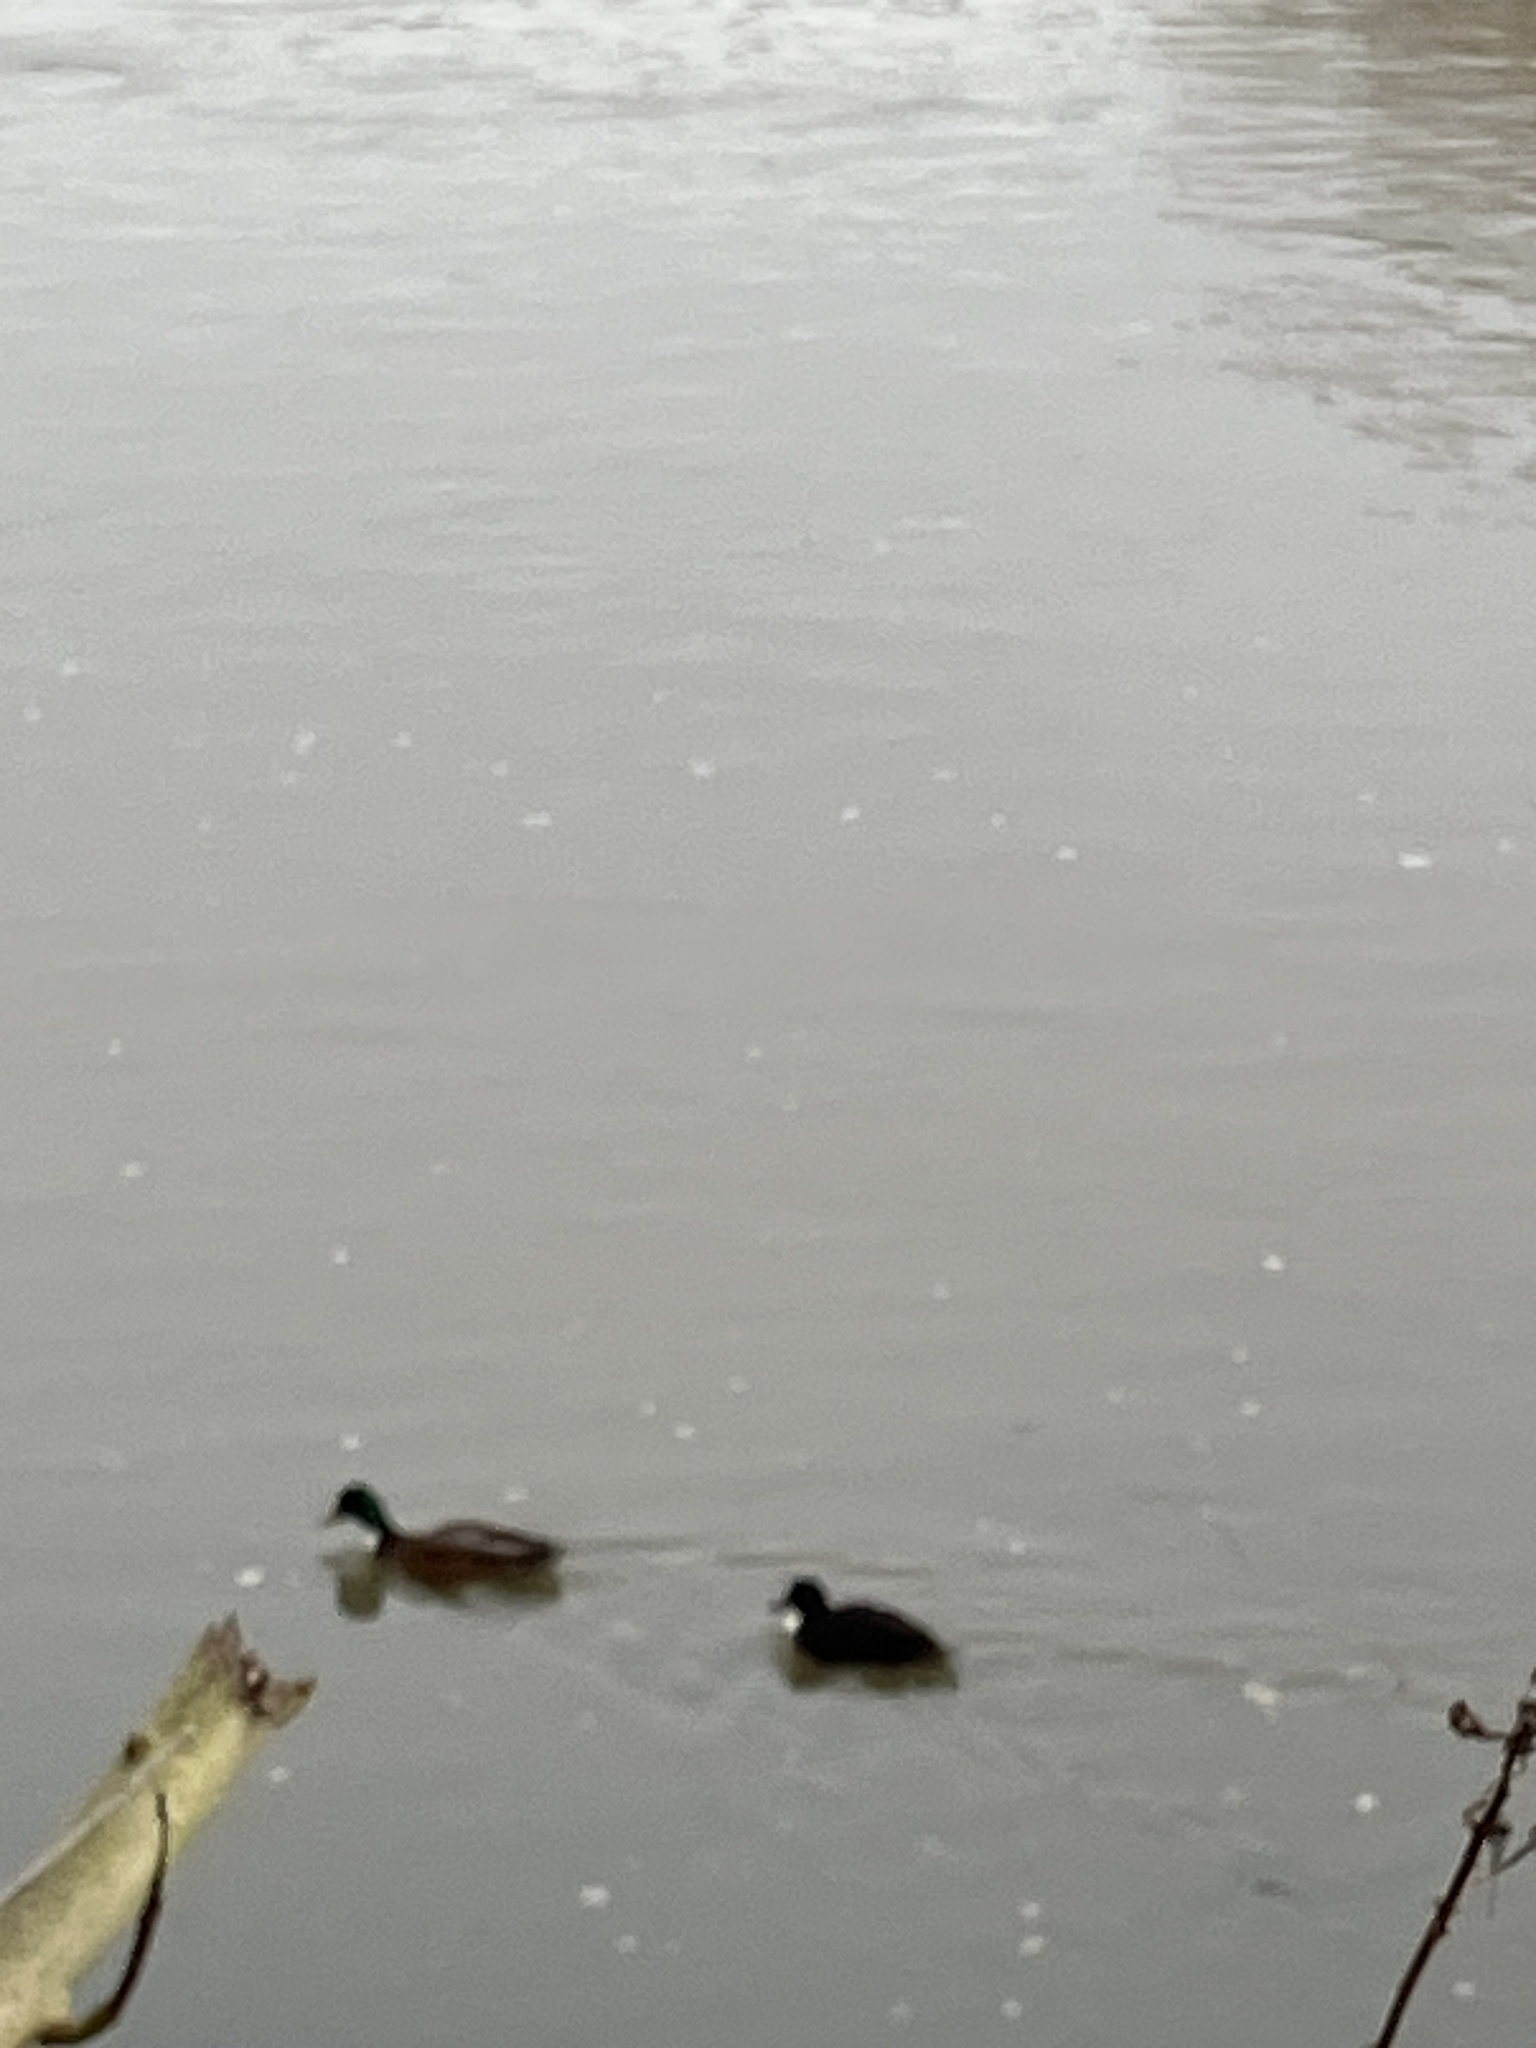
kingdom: Animalia
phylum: Chordata
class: Aves
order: Anseriformes
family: Anatidae
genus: Anas
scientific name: Anas platyrhynchos
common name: Mallard
